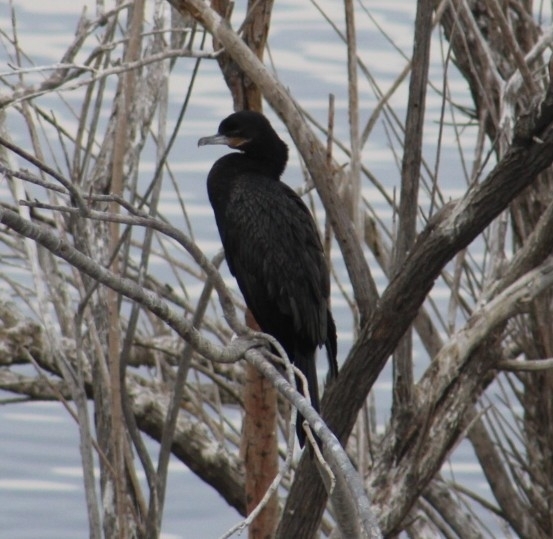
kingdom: Animalia
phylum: Chordata
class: Aves
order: Suliformes
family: Phalacrocoracidae
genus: Phalacrocorax
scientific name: Phalacrocorax brasilianus
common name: Neotropic cormorant
